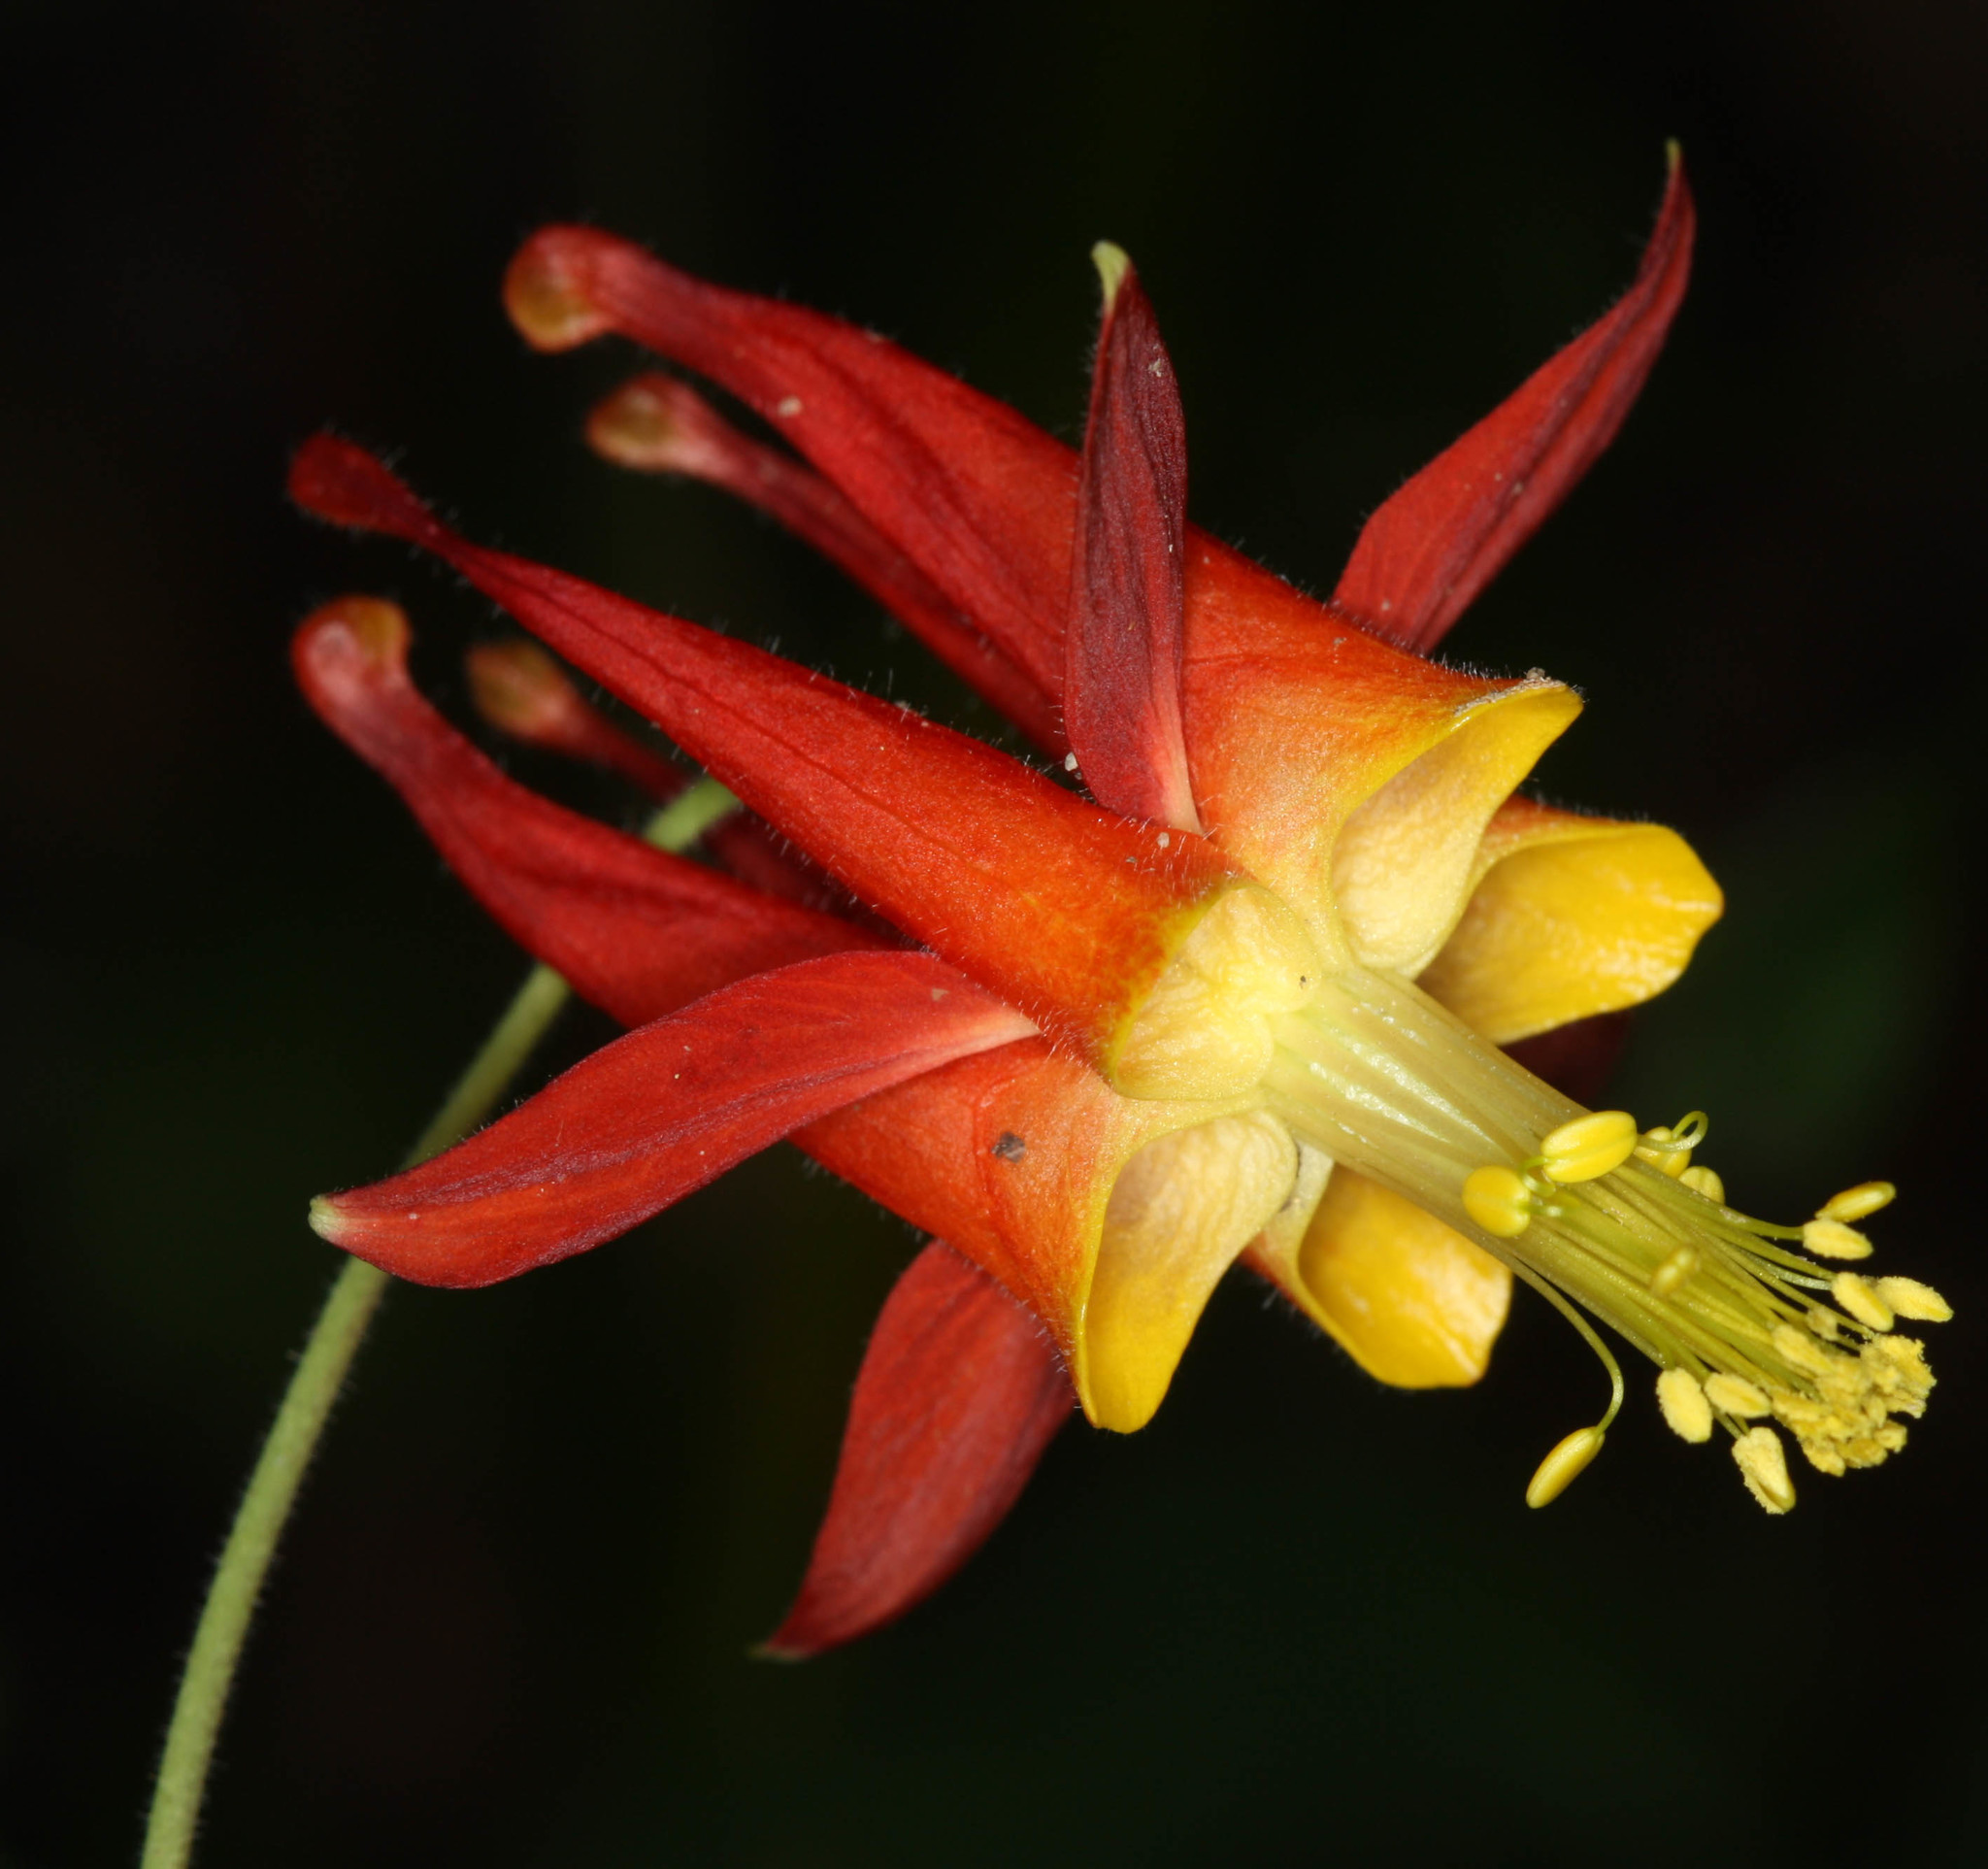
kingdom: Plantae
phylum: Tracheophyta
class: Magnoliopsida
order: Ranunculales
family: Ranunculaceae
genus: Aquilegia
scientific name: Aquilegia formosa
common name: Sitka columbine
